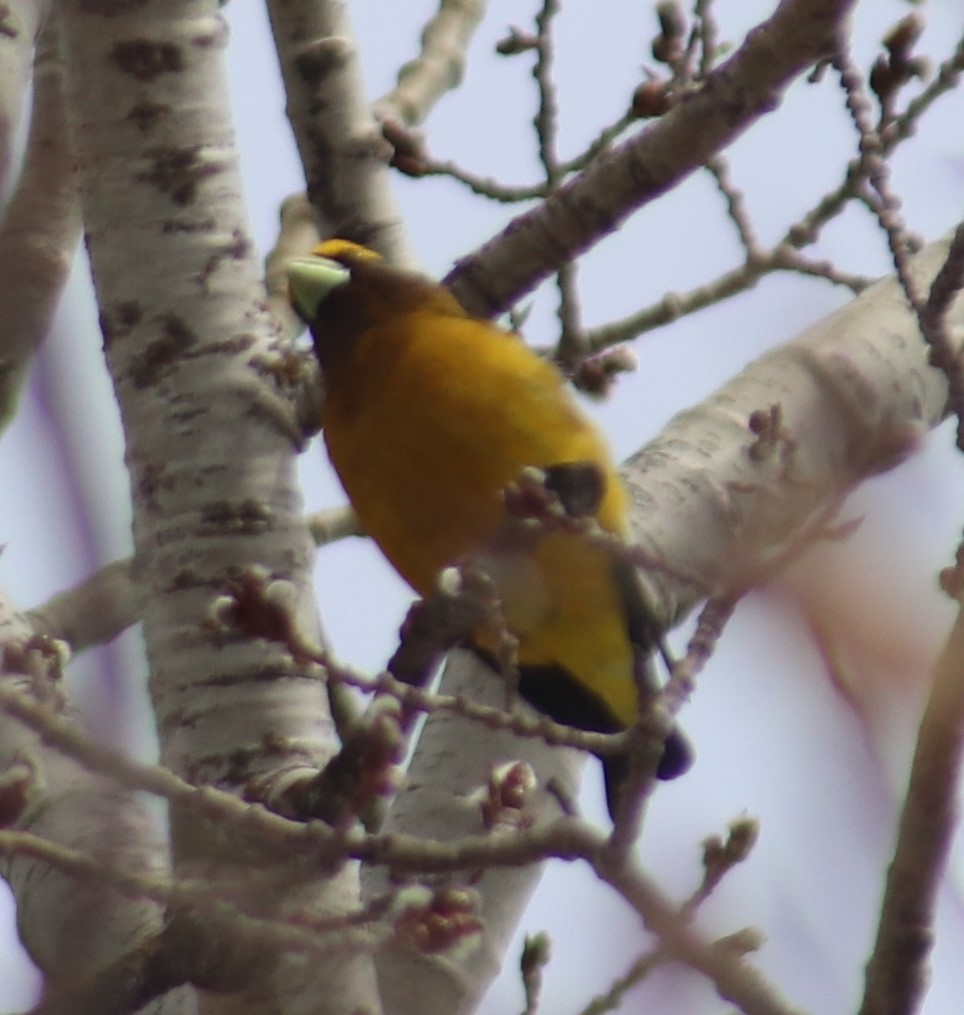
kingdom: Animalia
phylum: Chordata
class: Aves
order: Passeriformes
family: Fringillidae
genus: Hesperiphona
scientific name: Hesperiphona vespertina
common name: Evening grosbeak
